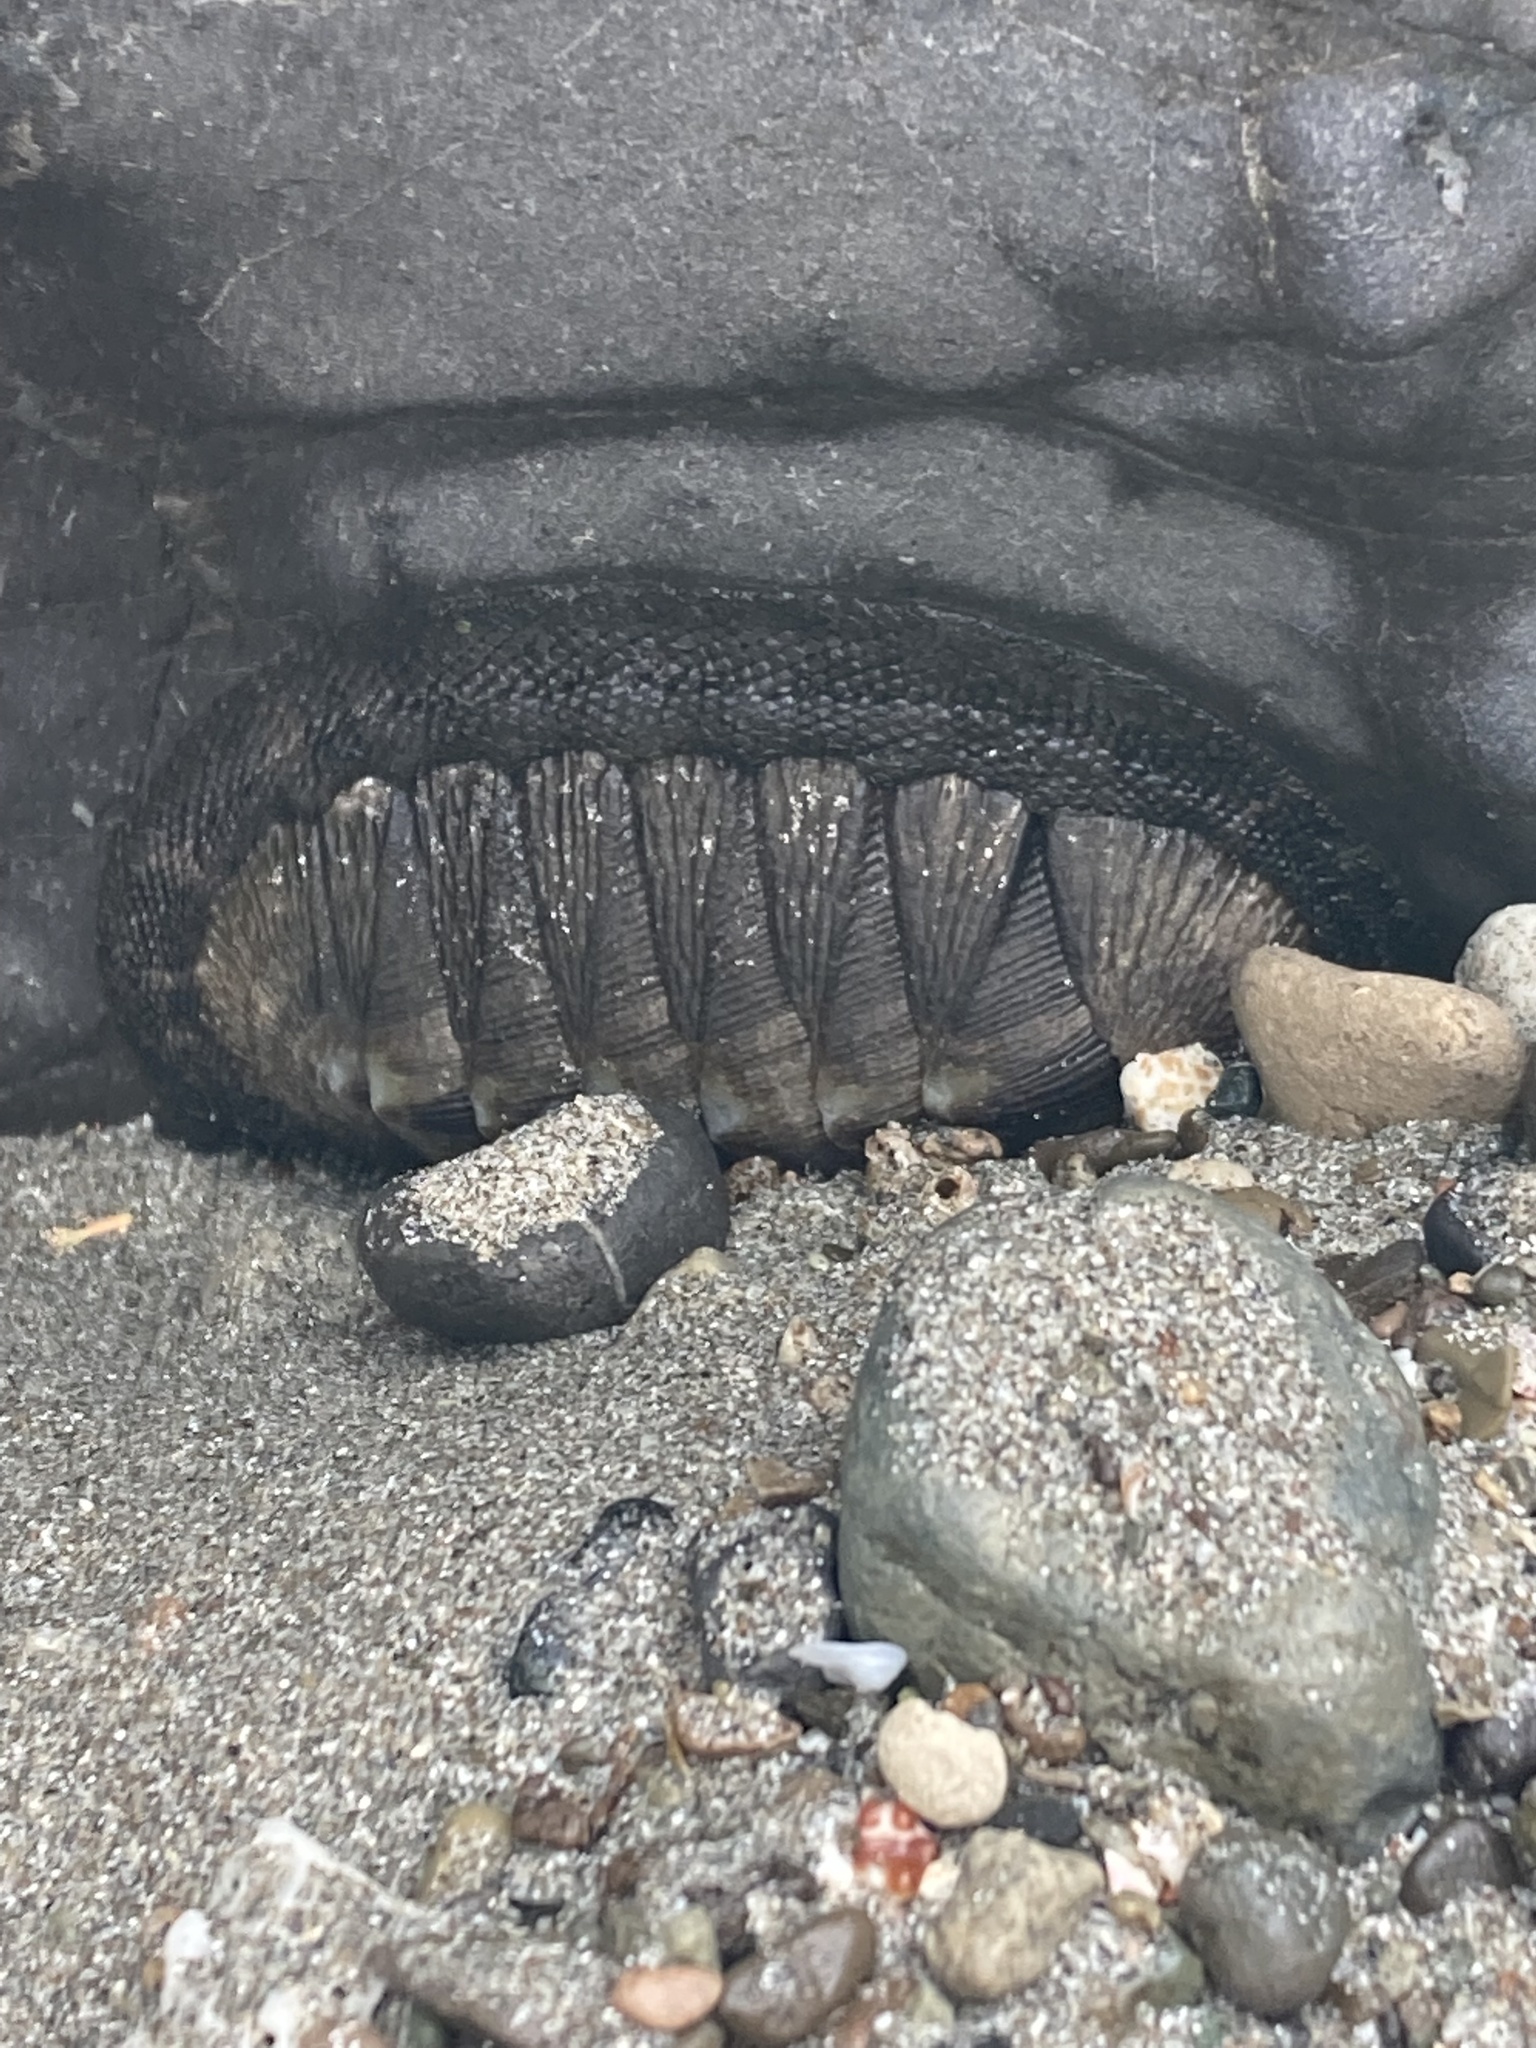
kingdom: Animalia
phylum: Mollusca
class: Polyplacophora
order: Chitonida
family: Chitonidae
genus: Chiton
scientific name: Chiton stokesii
